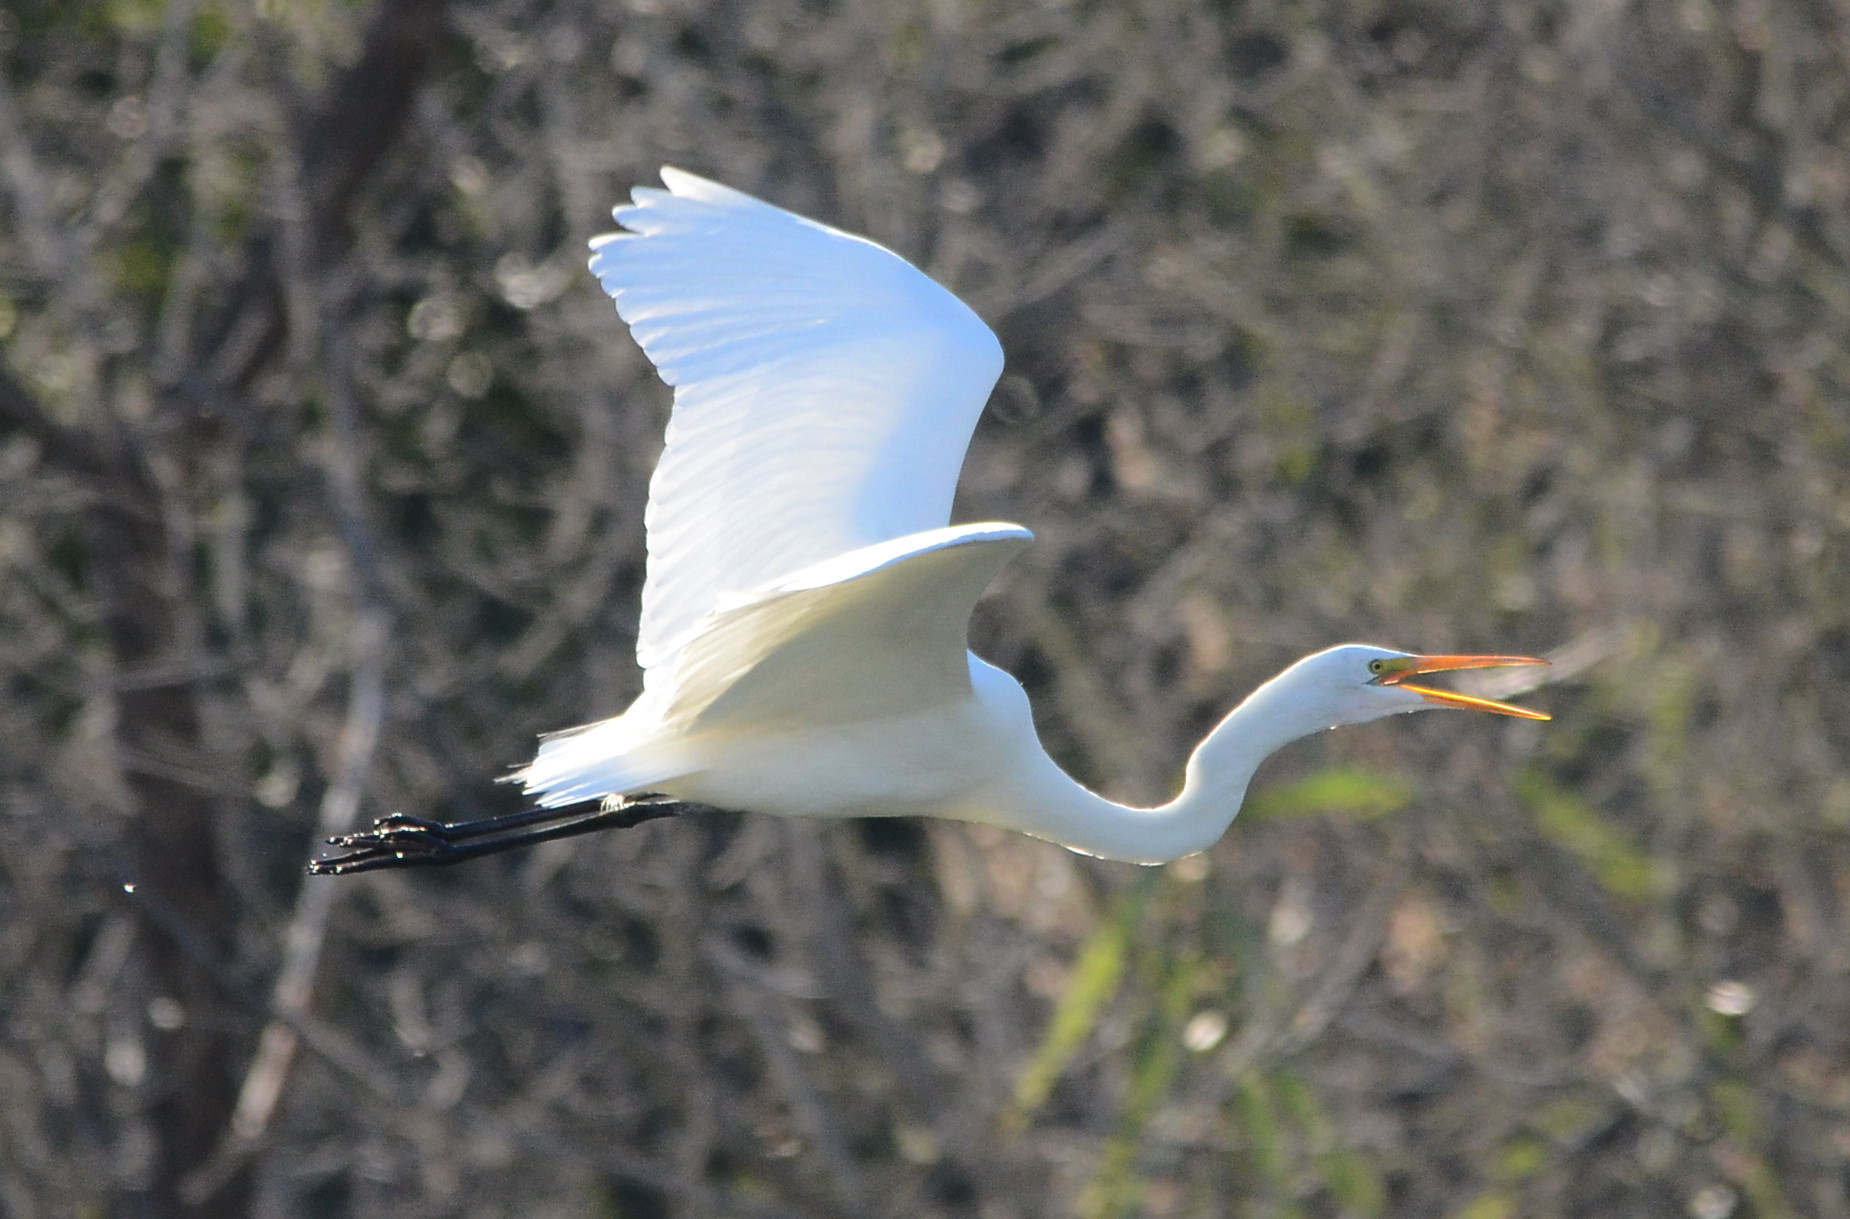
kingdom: Animalia
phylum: Chordata
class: Aves
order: Pelecaniformes
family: Ardeidae
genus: Ardea
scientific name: Ardea alba
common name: Great egret
